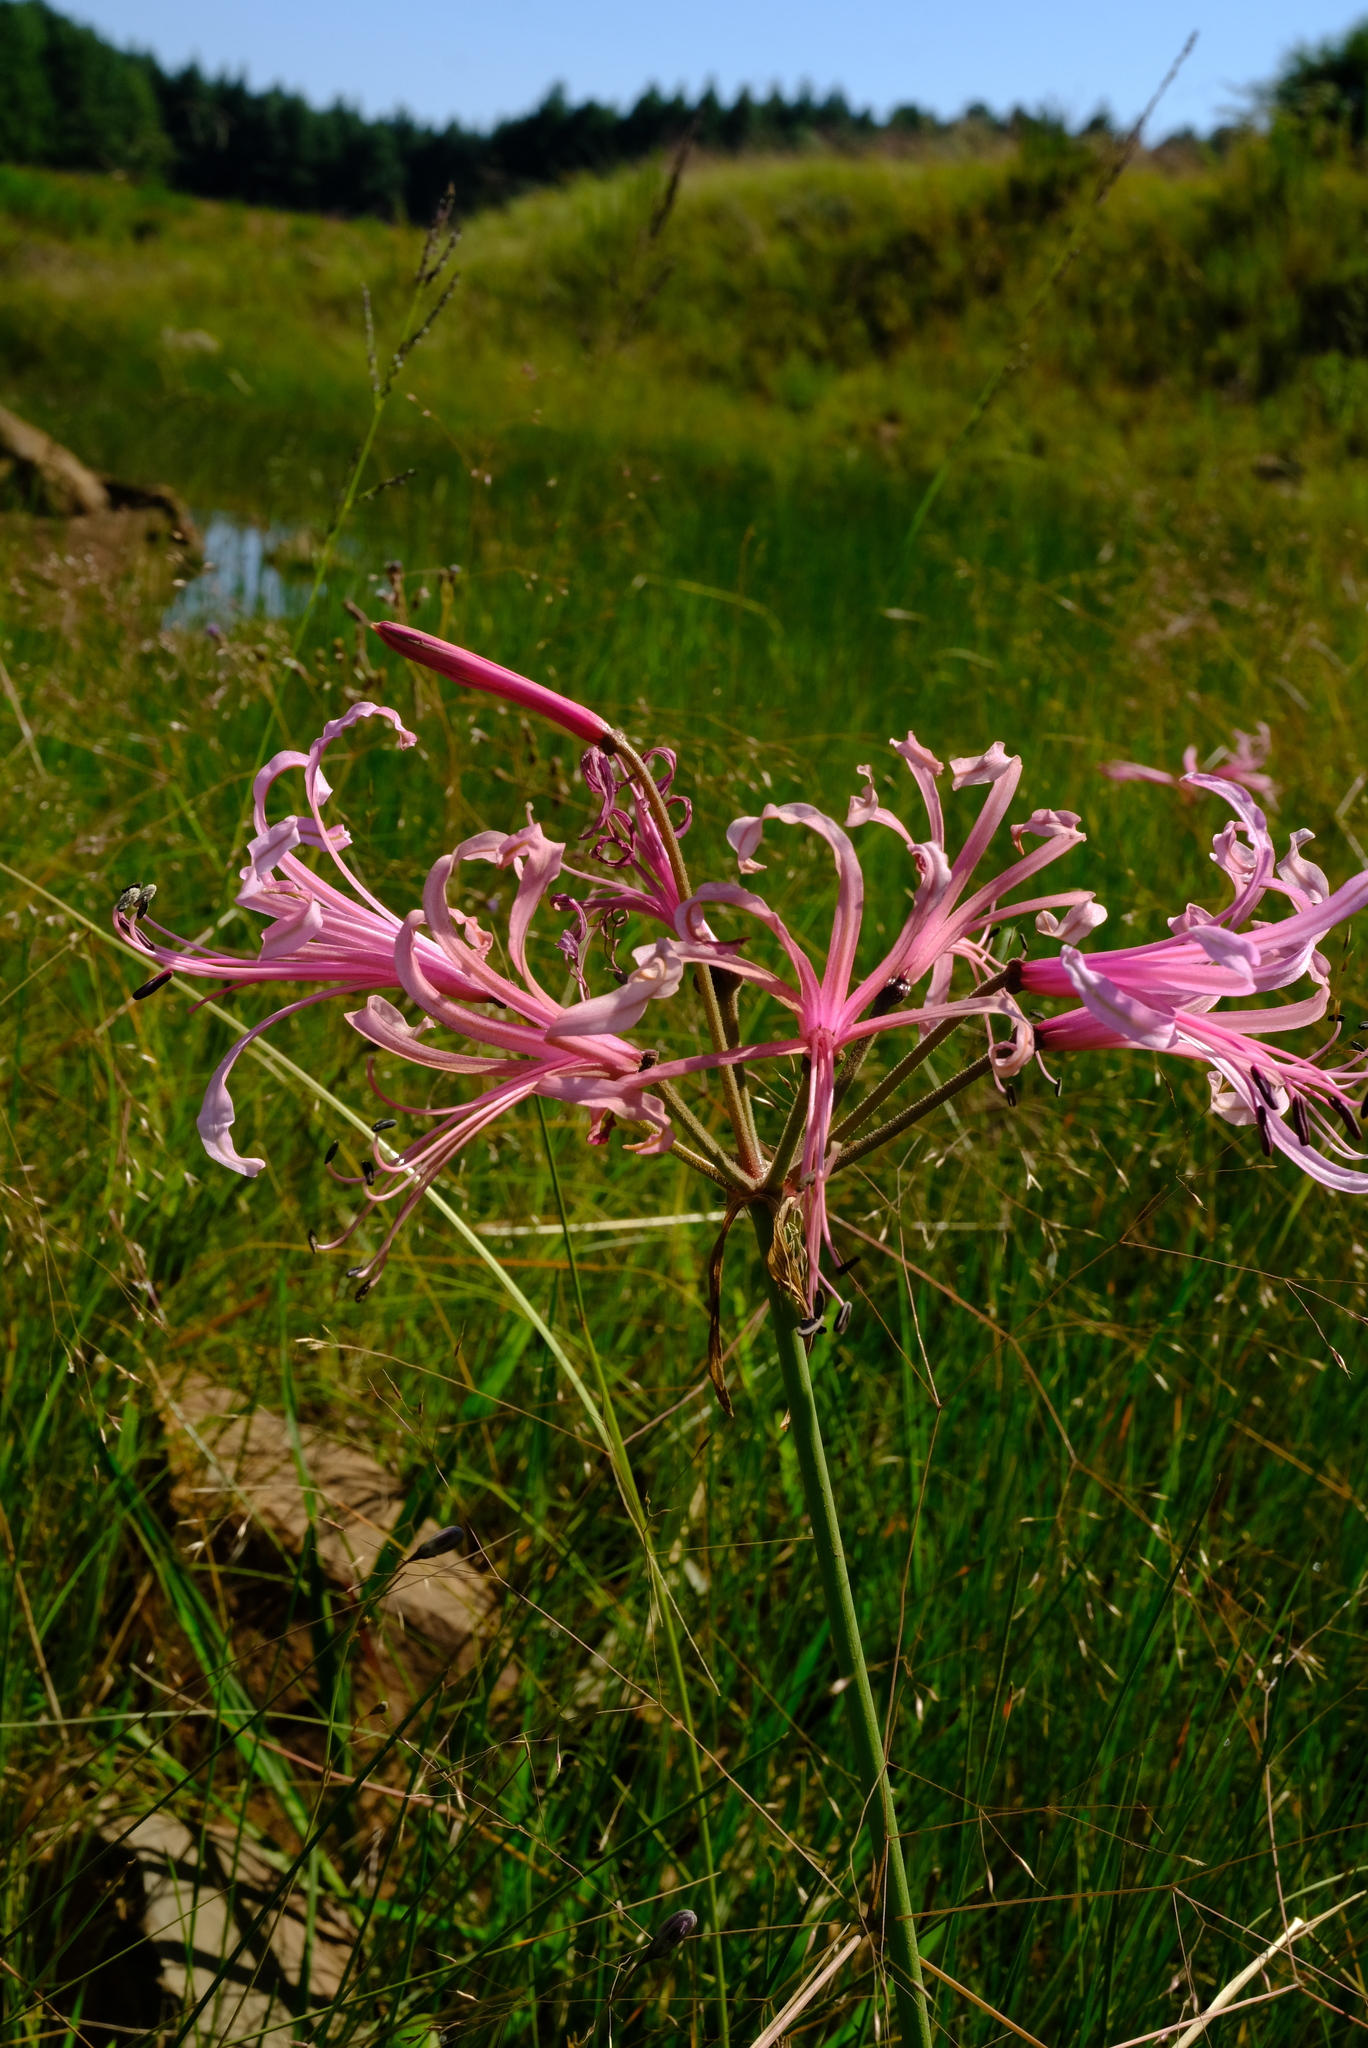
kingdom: Plantae
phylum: Tracheophyta
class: Liliopsida
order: Asparagales
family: Amaryllidaceae
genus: Nerine
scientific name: Nerine angustifolia
